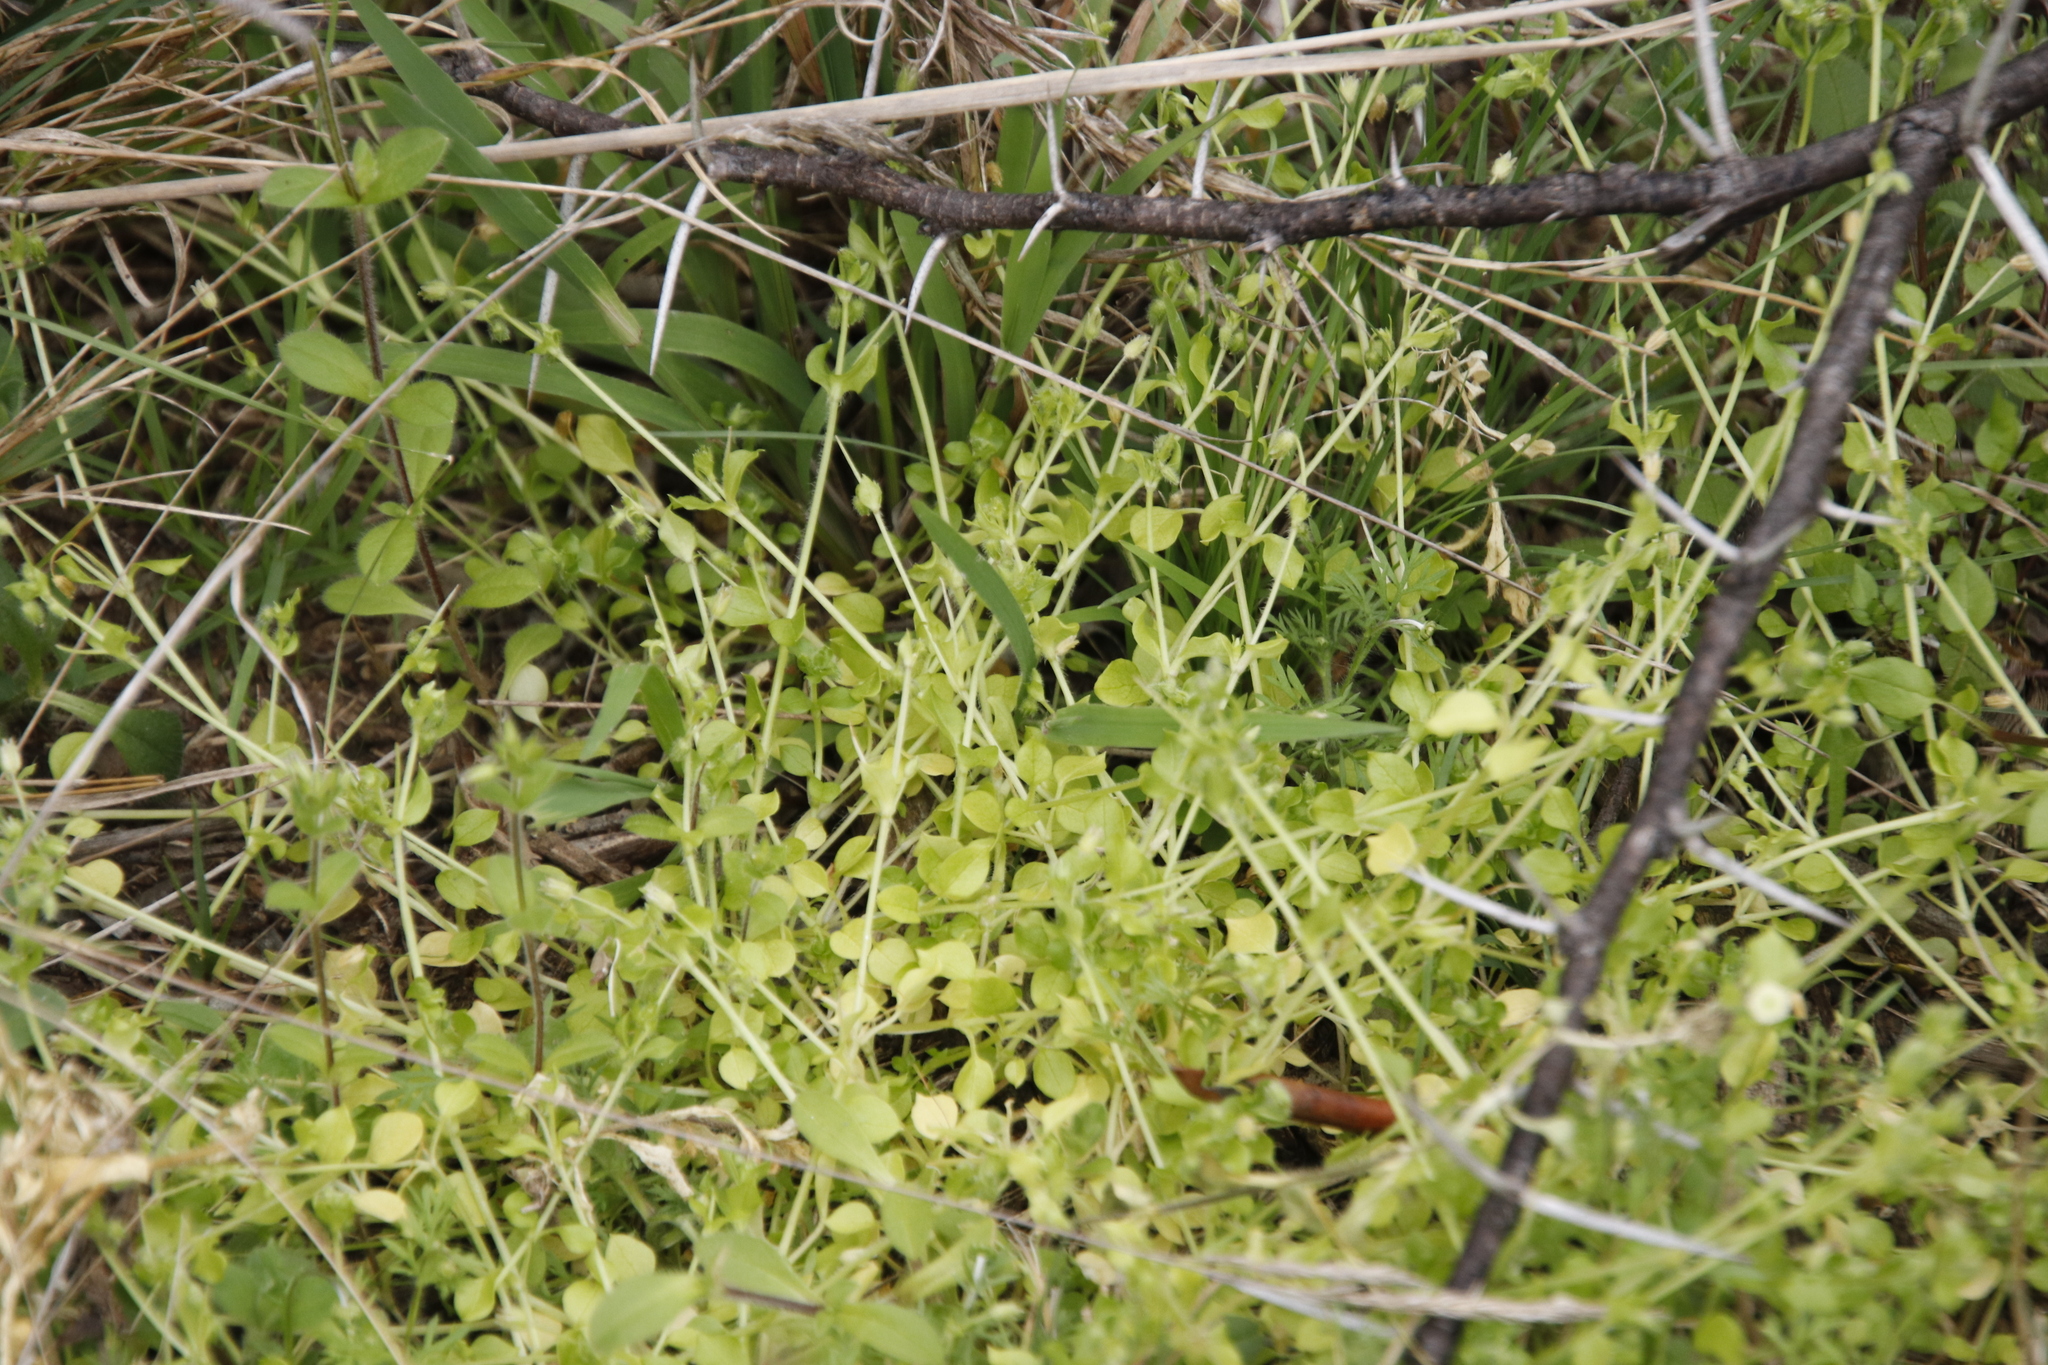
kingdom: Plantae
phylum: Tracheophyta
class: Magnoliopsida
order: Caryophyllales
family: Caryophyllaceae
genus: Stellaria
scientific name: Stellaria media
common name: Common chickweed
